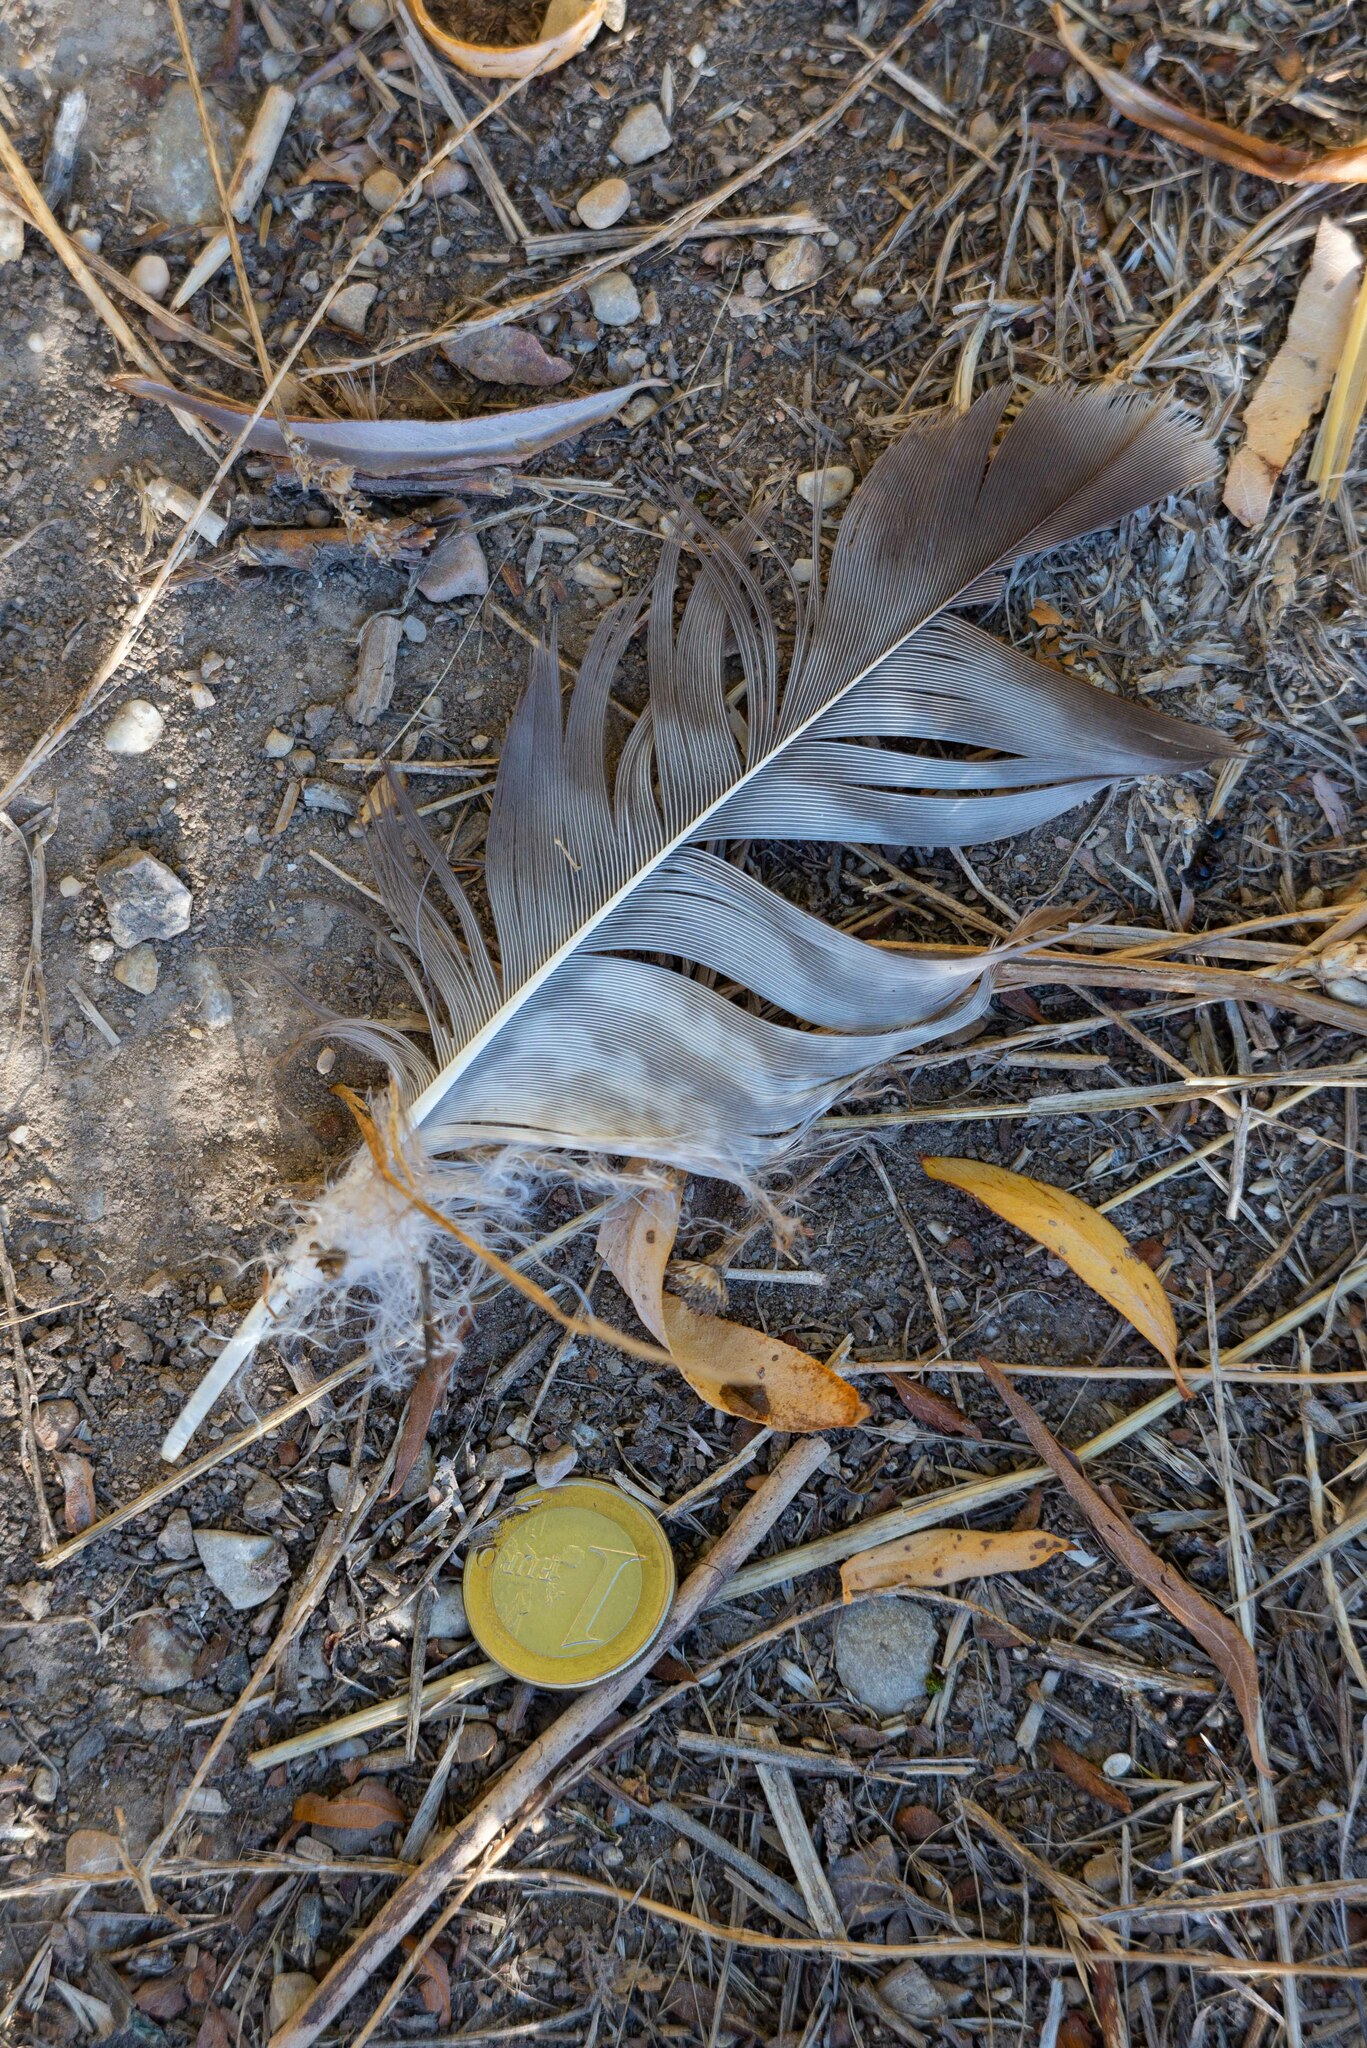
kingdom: Animalia
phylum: Chordata
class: Aves
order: Accipitriformes
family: Accipitridae
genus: Buteo
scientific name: Buteo buteo
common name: Common buzzard
